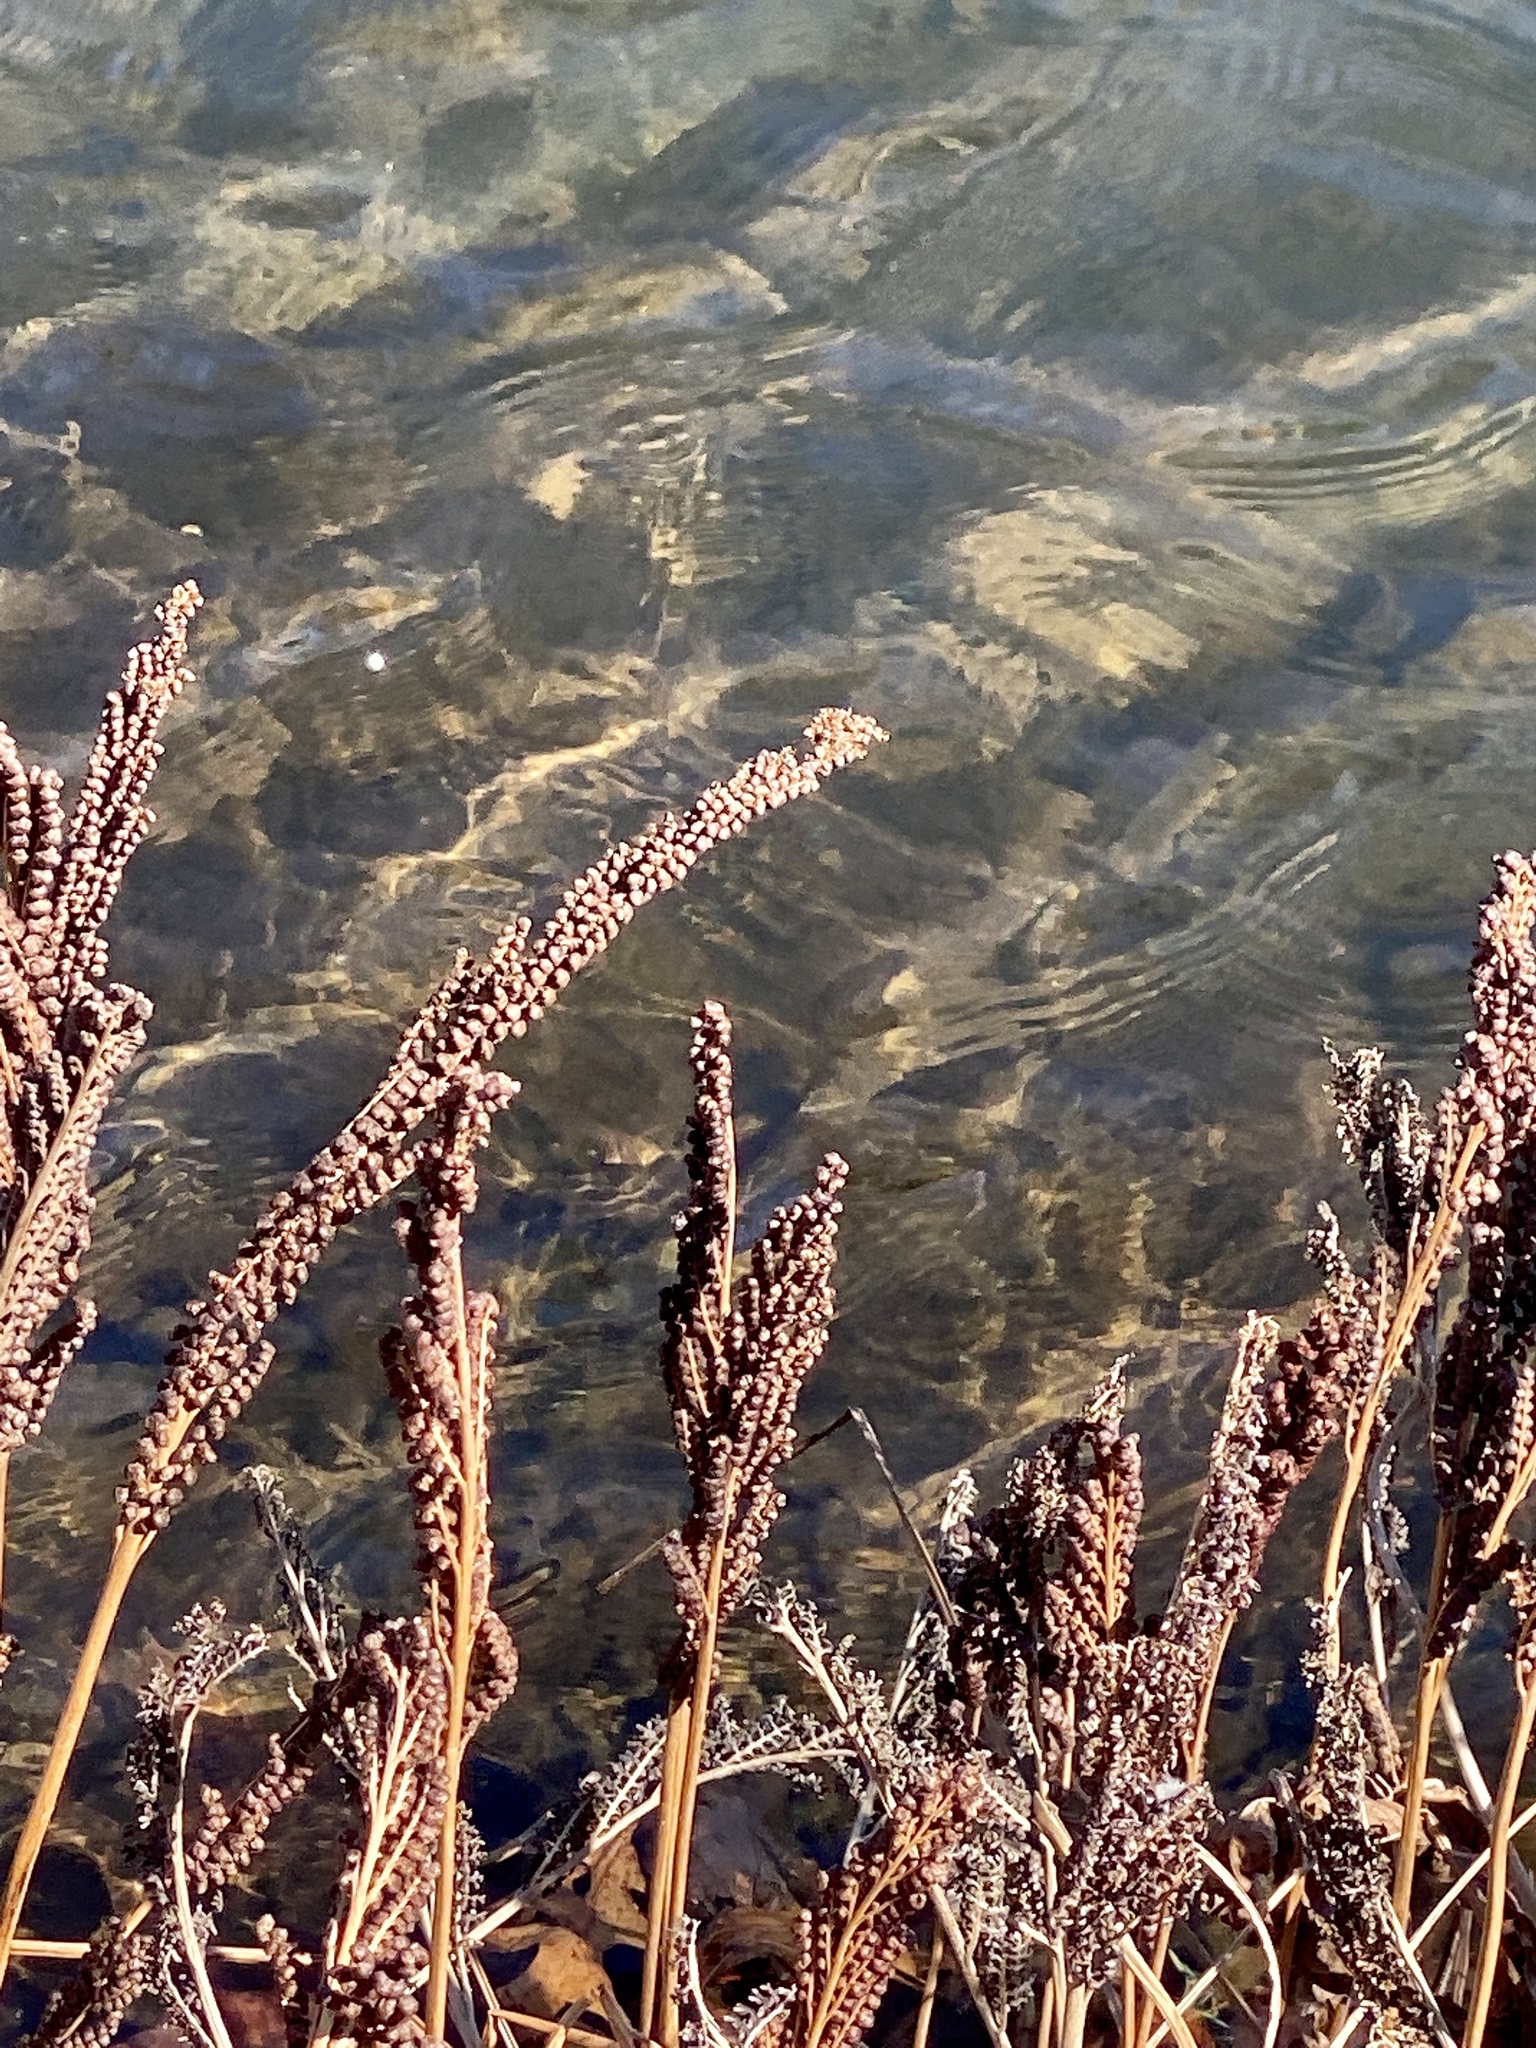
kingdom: Plantae
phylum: Tracheophyta
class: Polypodiopsida
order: Polypodiales
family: Onocleaceae
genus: Onoclea
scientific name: Onoclea sensibilis
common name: Sensitive fern
